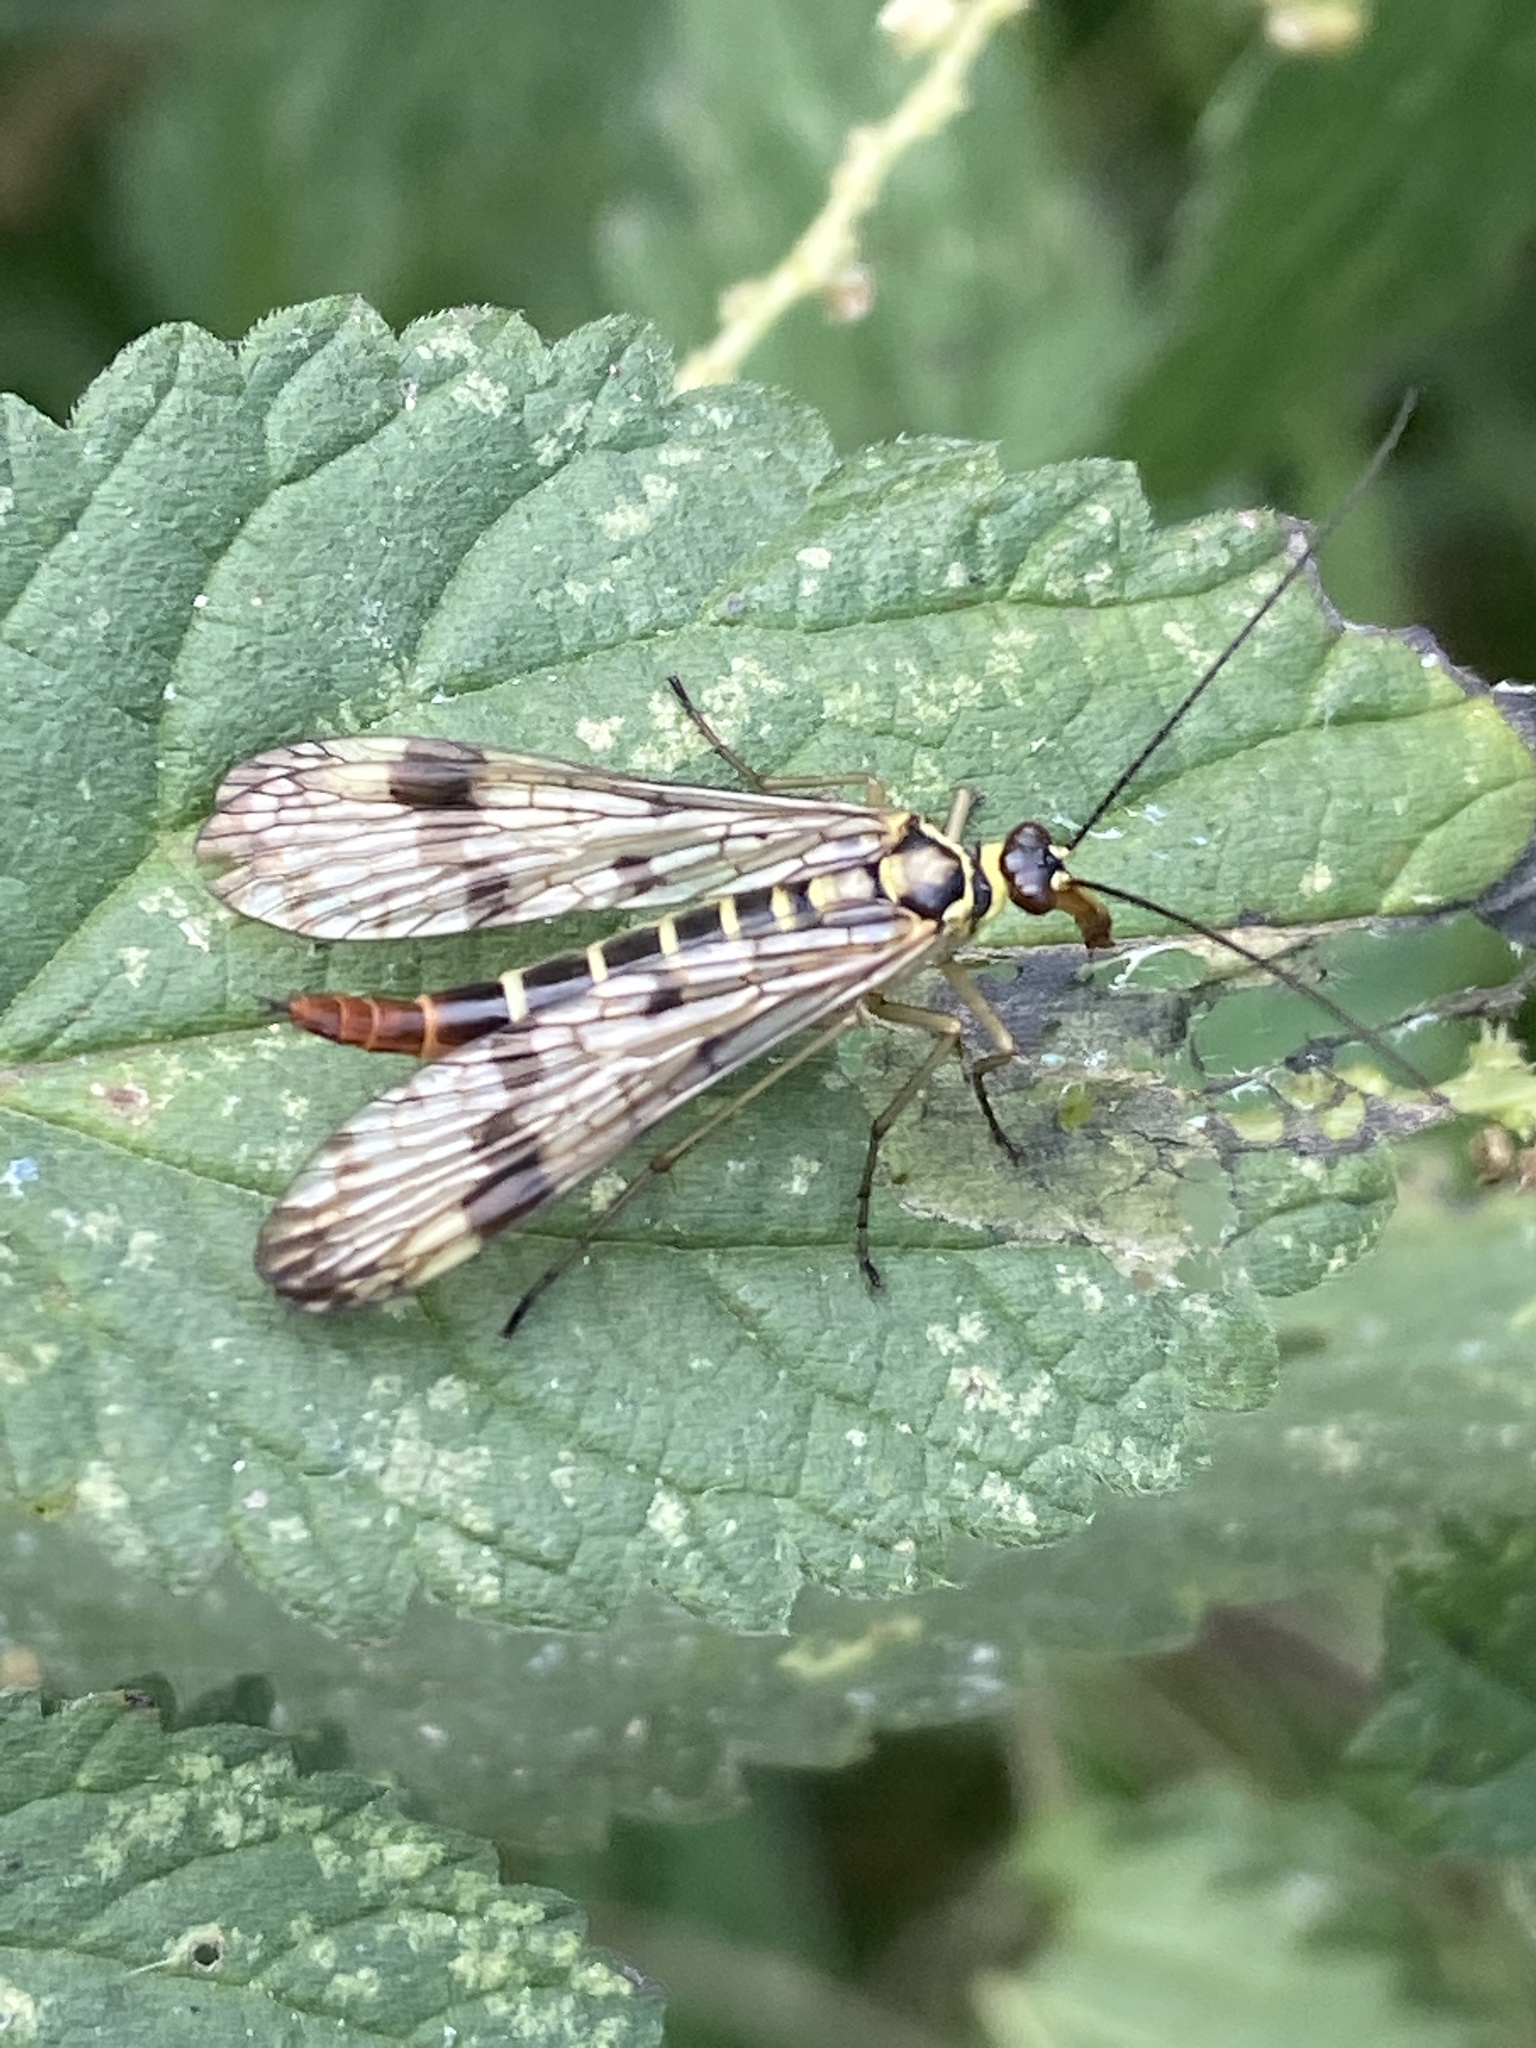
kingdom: Animalia
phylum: Arthropoda
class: Insecta
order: Mecoptera
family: Panorpidae
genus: Panorpa
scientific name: Panorpa communis
